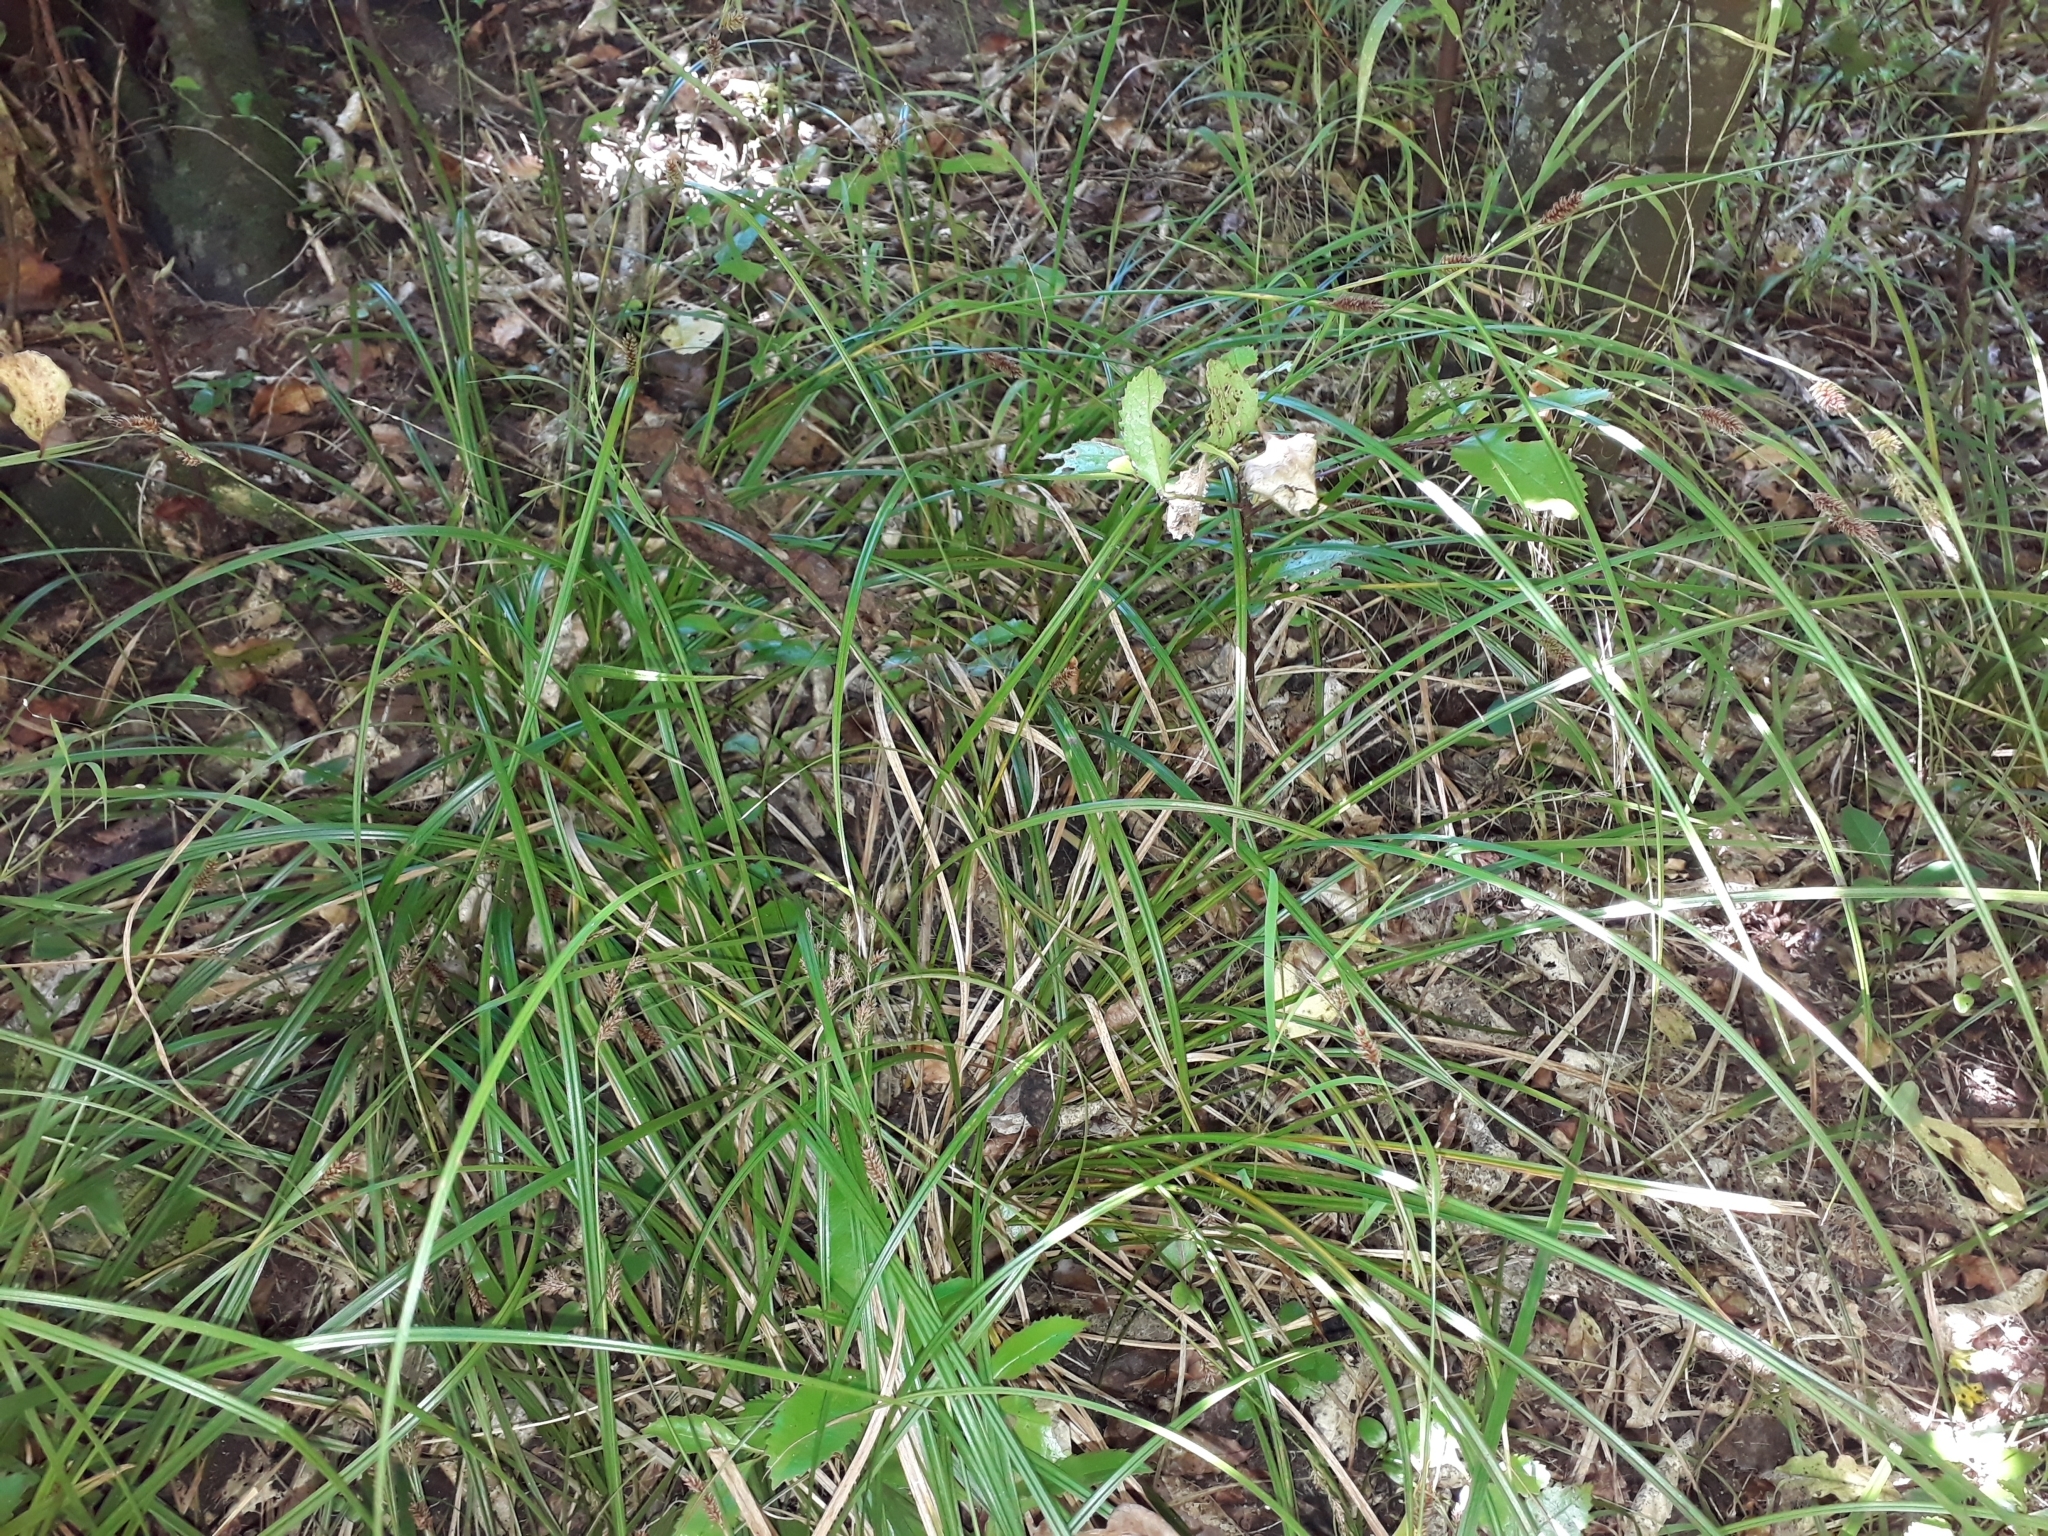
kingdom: Plantae
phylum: Tracheophyta
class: Liliopsida
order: Poales
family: Cyperaceae
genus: Carex
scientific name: Carex dissita
